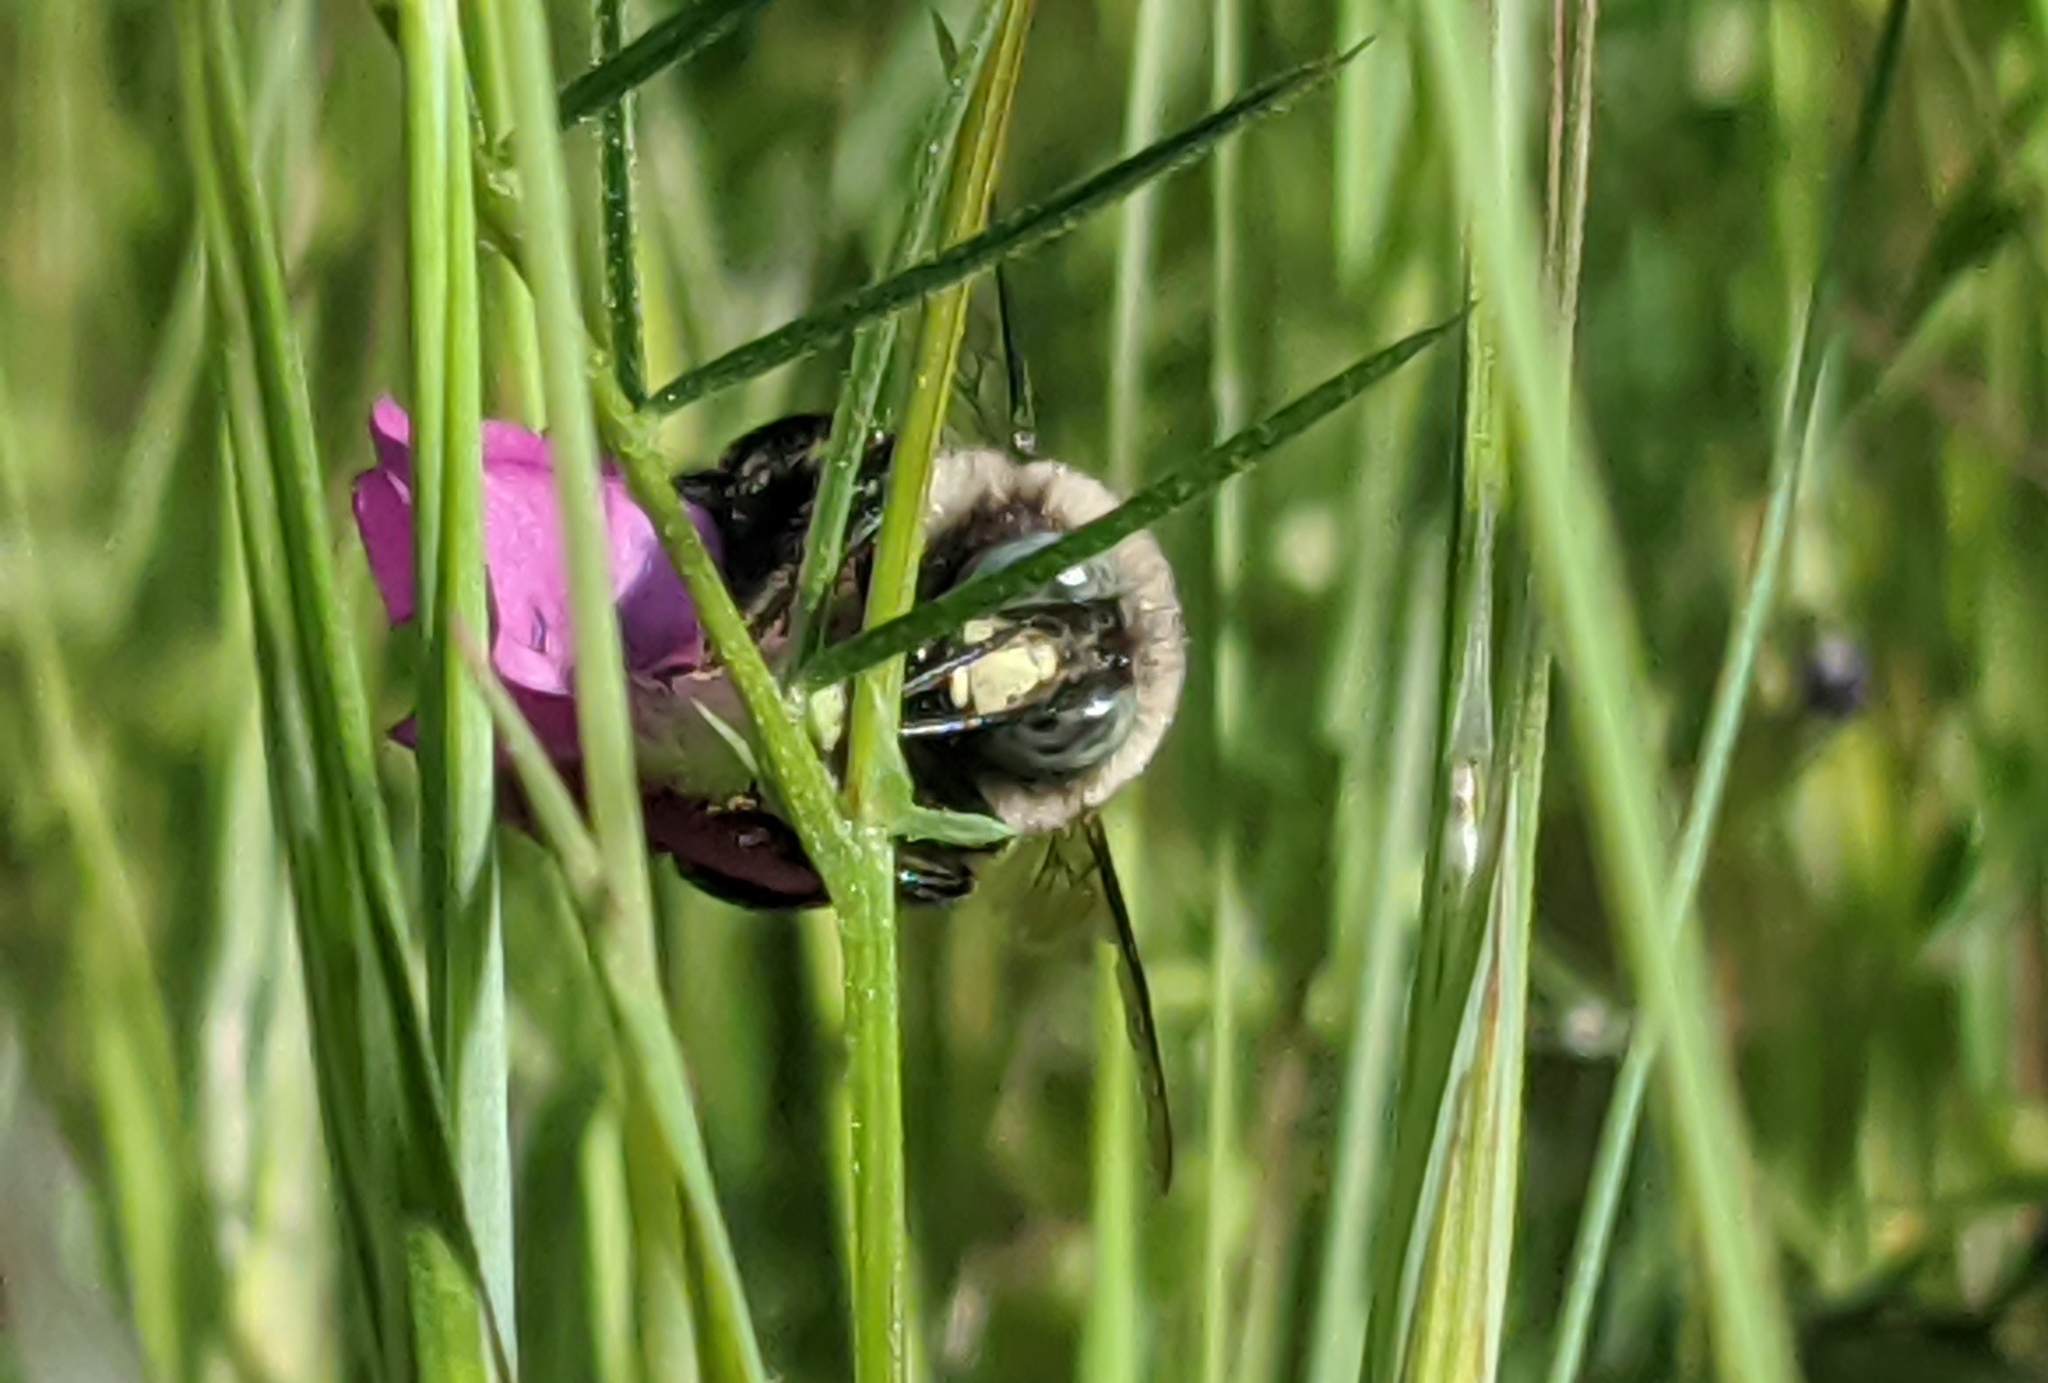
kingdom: Animalia
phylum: Arthropoda
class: Insecta
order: Hymenoptera
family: Apidae
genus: Xylocopa
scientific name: Xylocopa tabaniformis
